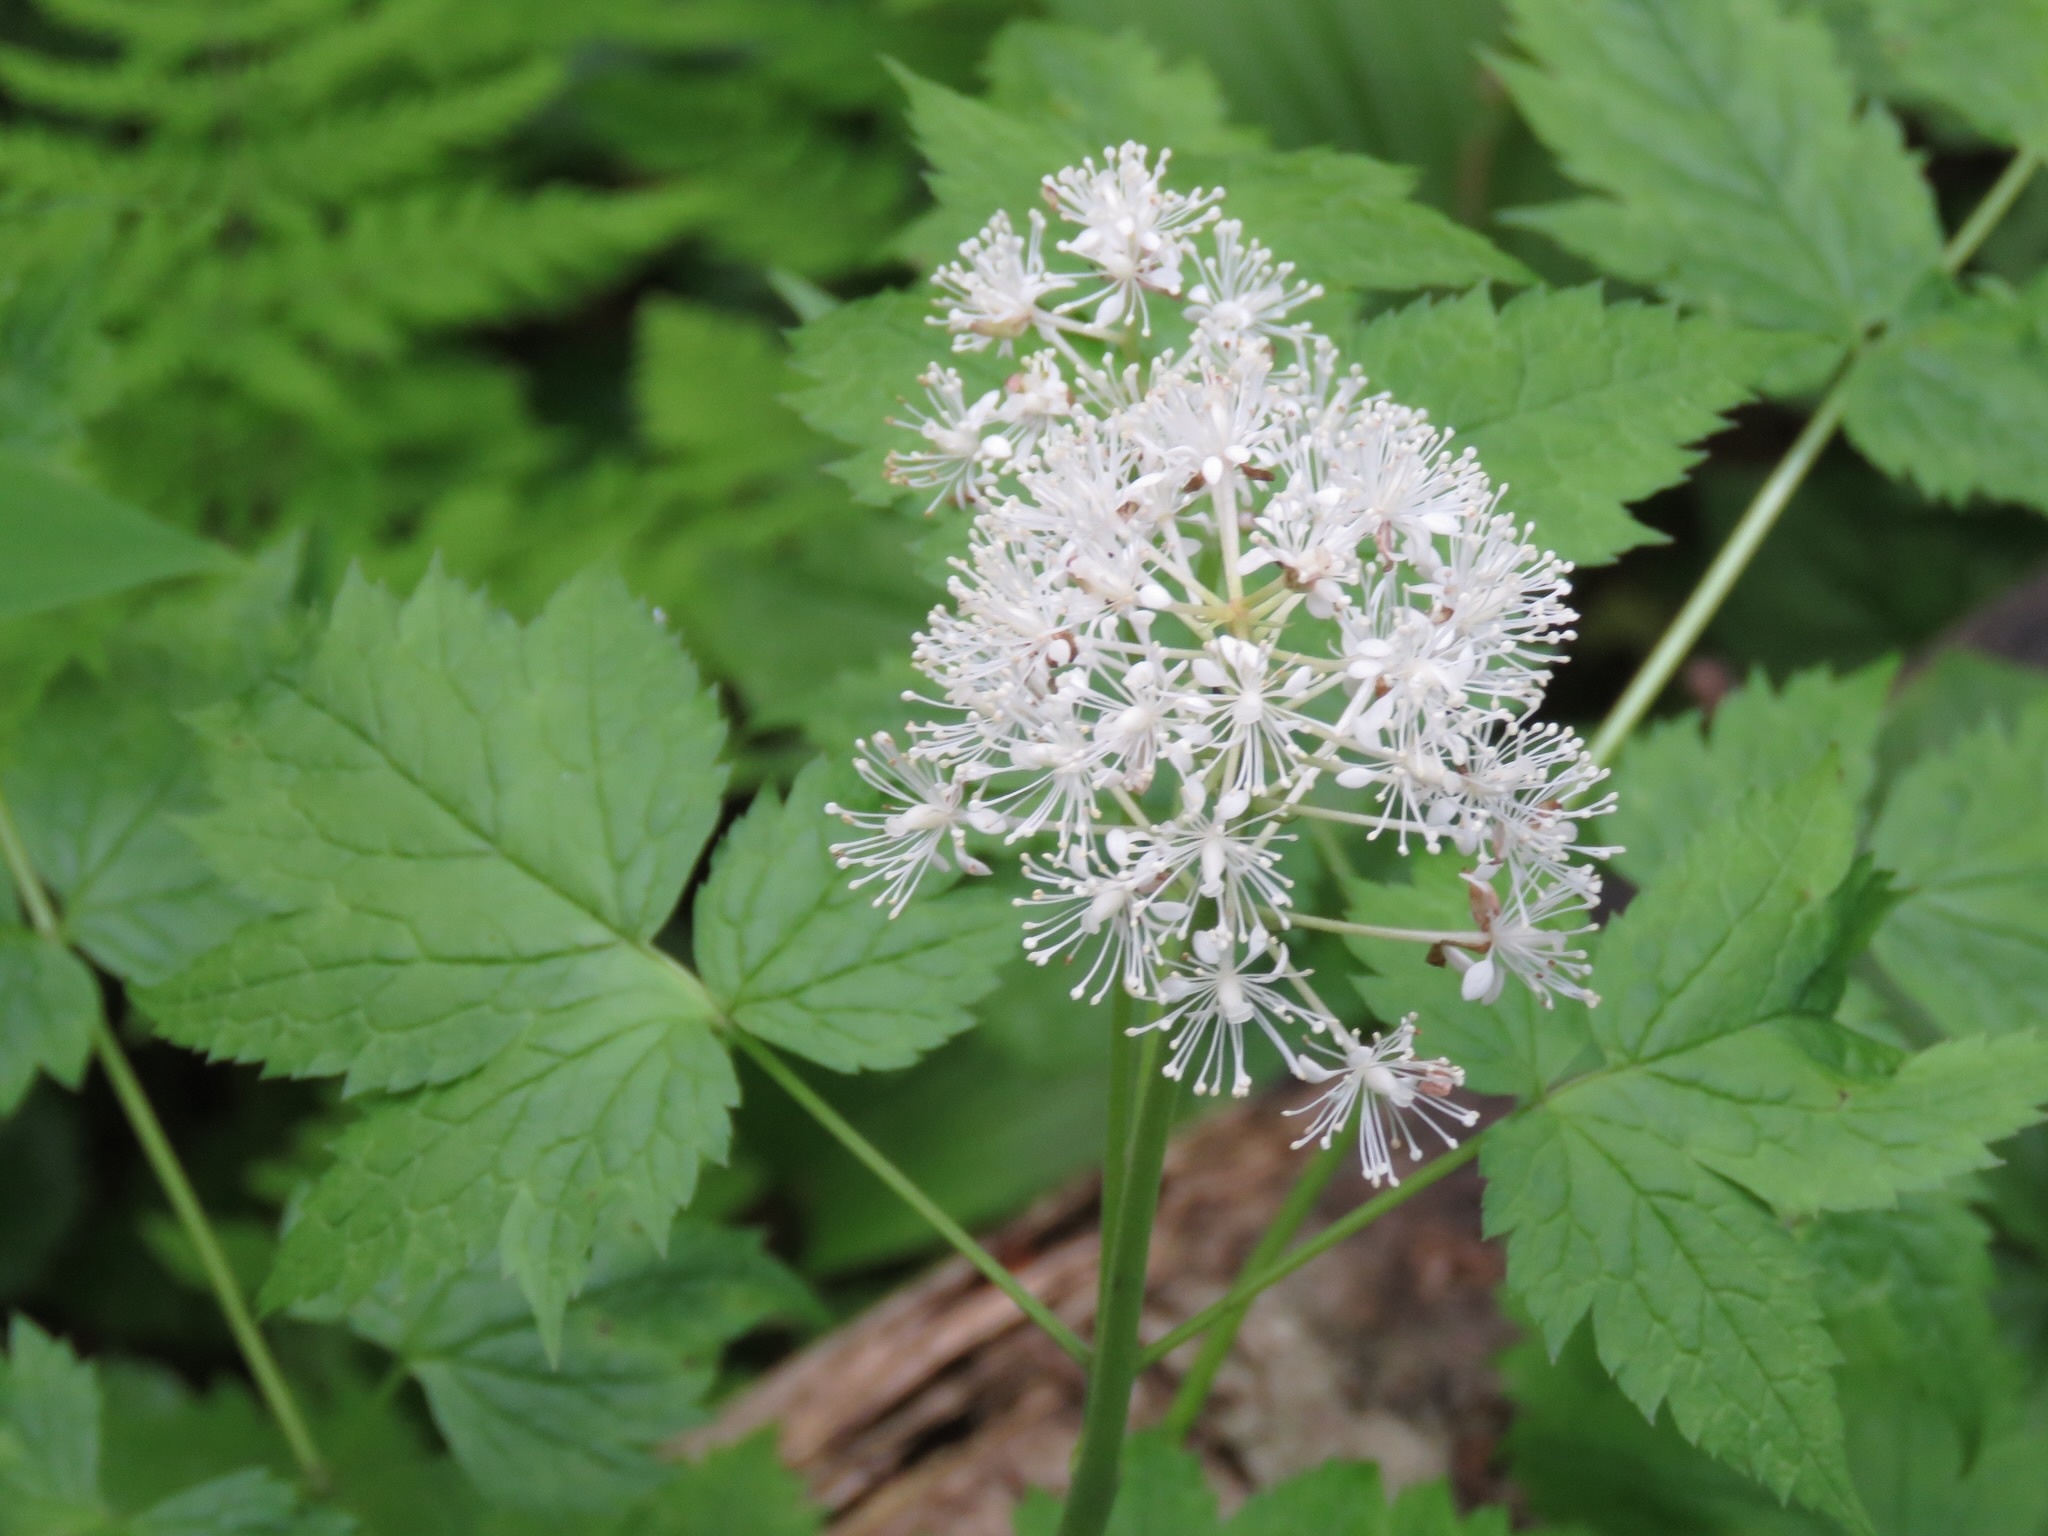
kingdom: Plantae
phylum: Tracheophyta
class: Magnoliopsida
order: Ranunculales
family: Ranunculaceae
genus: Actaea
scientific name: Actaea rubra
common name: Red baneberry
